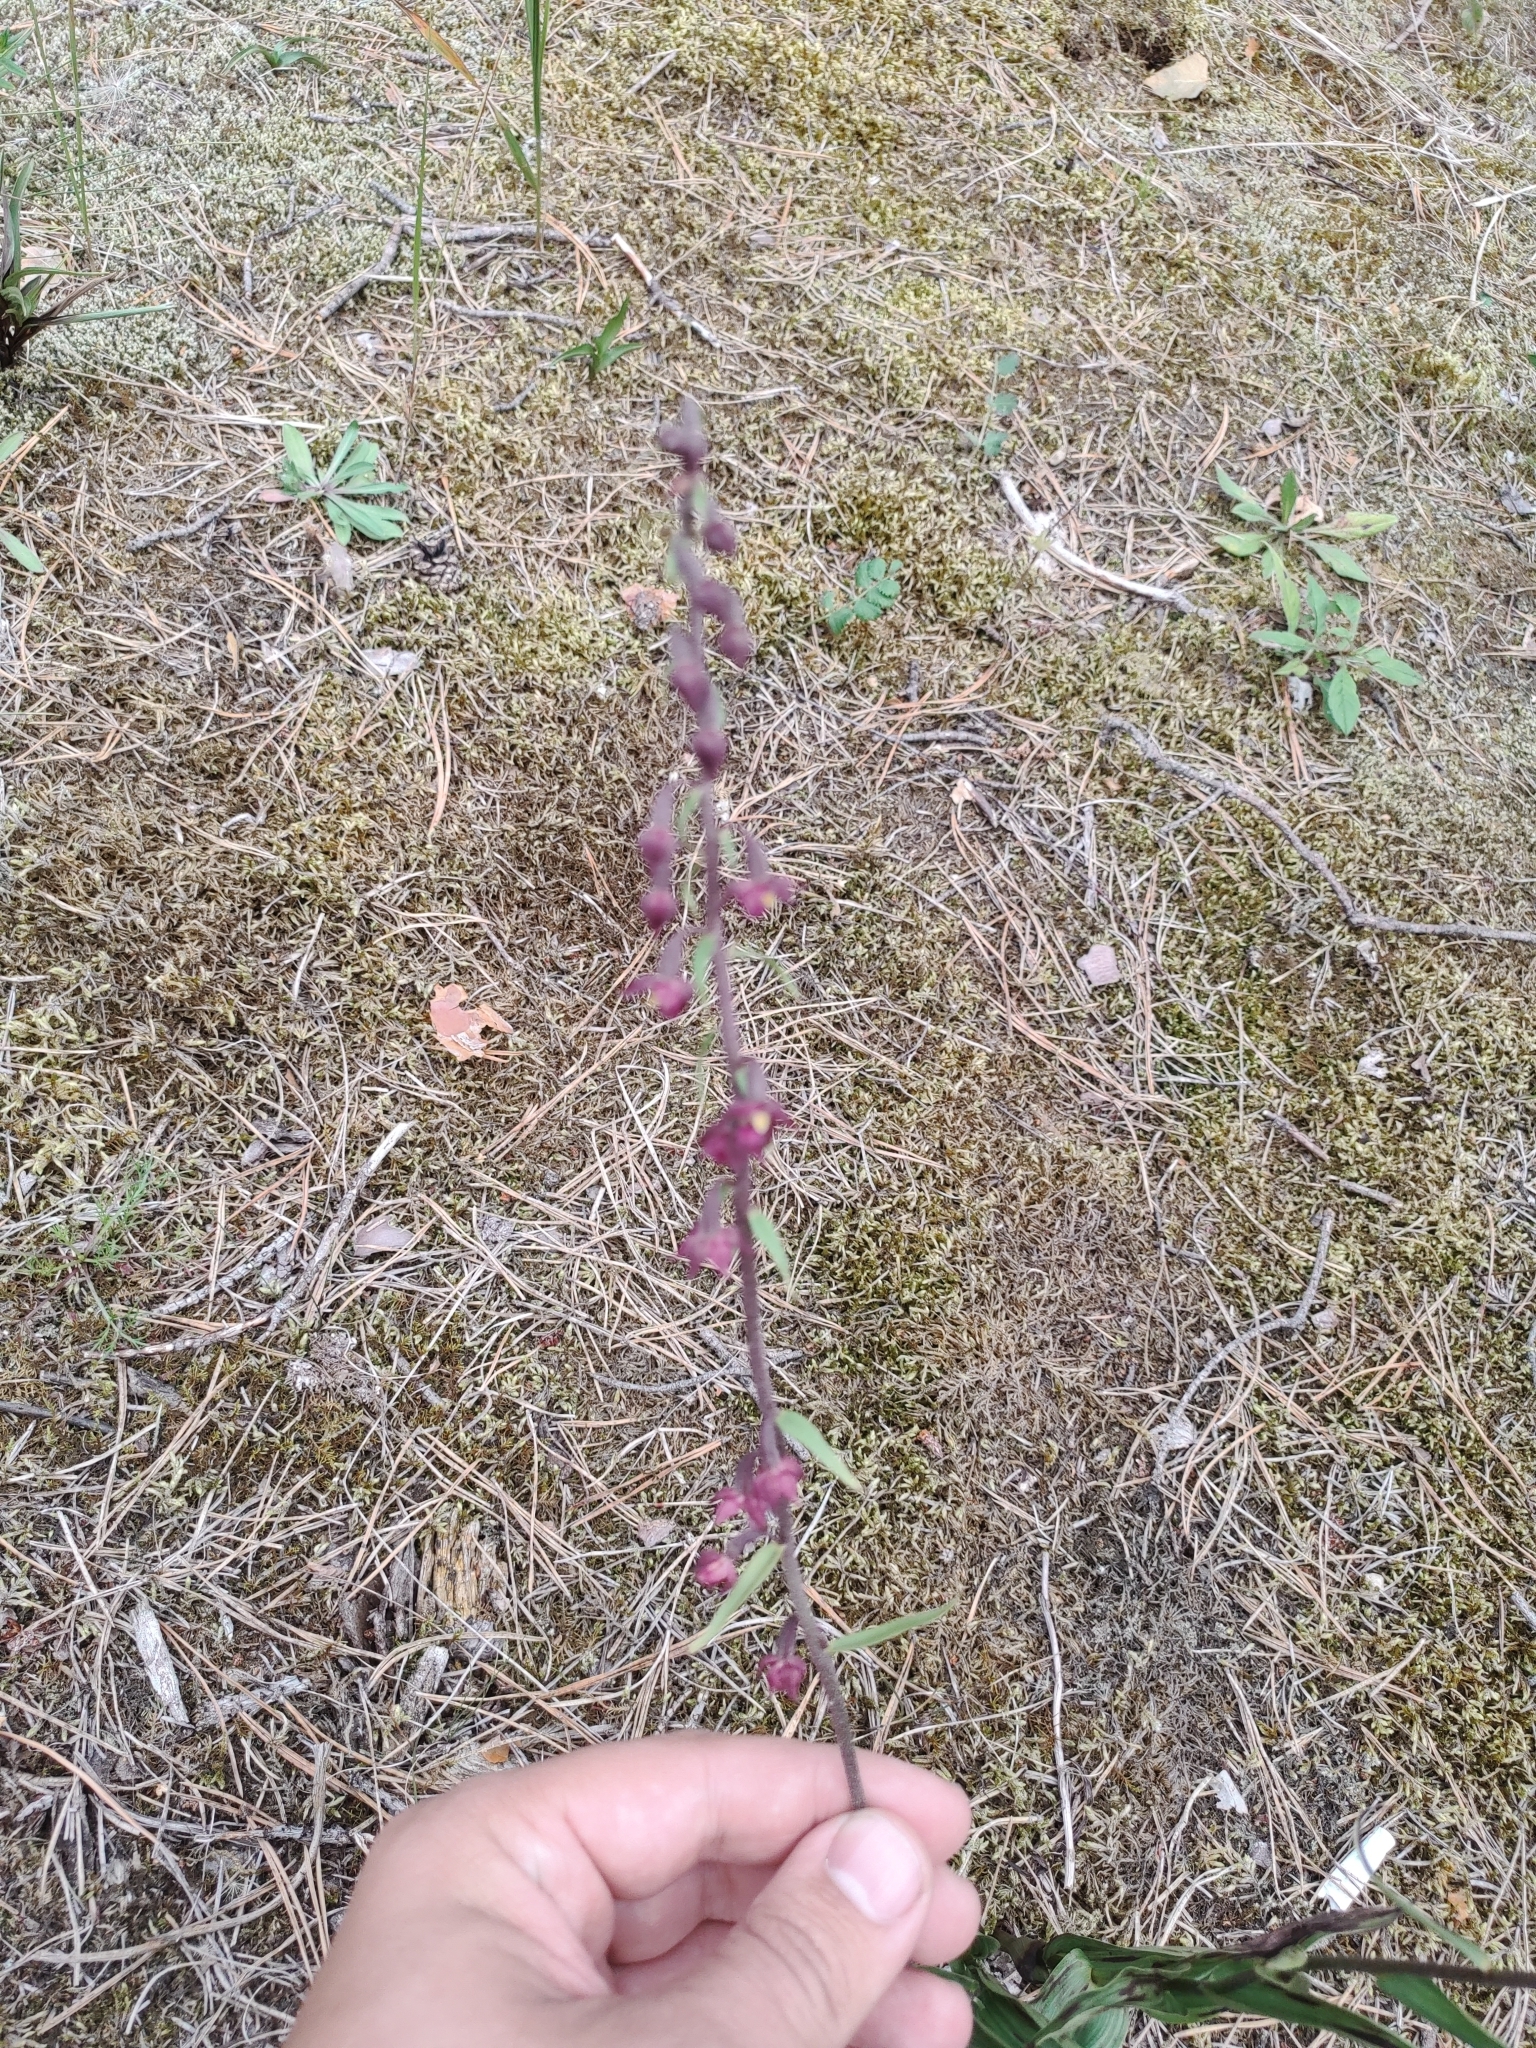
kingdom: Plantae
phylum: Tracheophyta
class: Liliopsida
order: Asparagales
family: Orchidaceae
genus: Epipactis
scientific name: Epipactis atrorubens
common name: Dark-red helleborine
